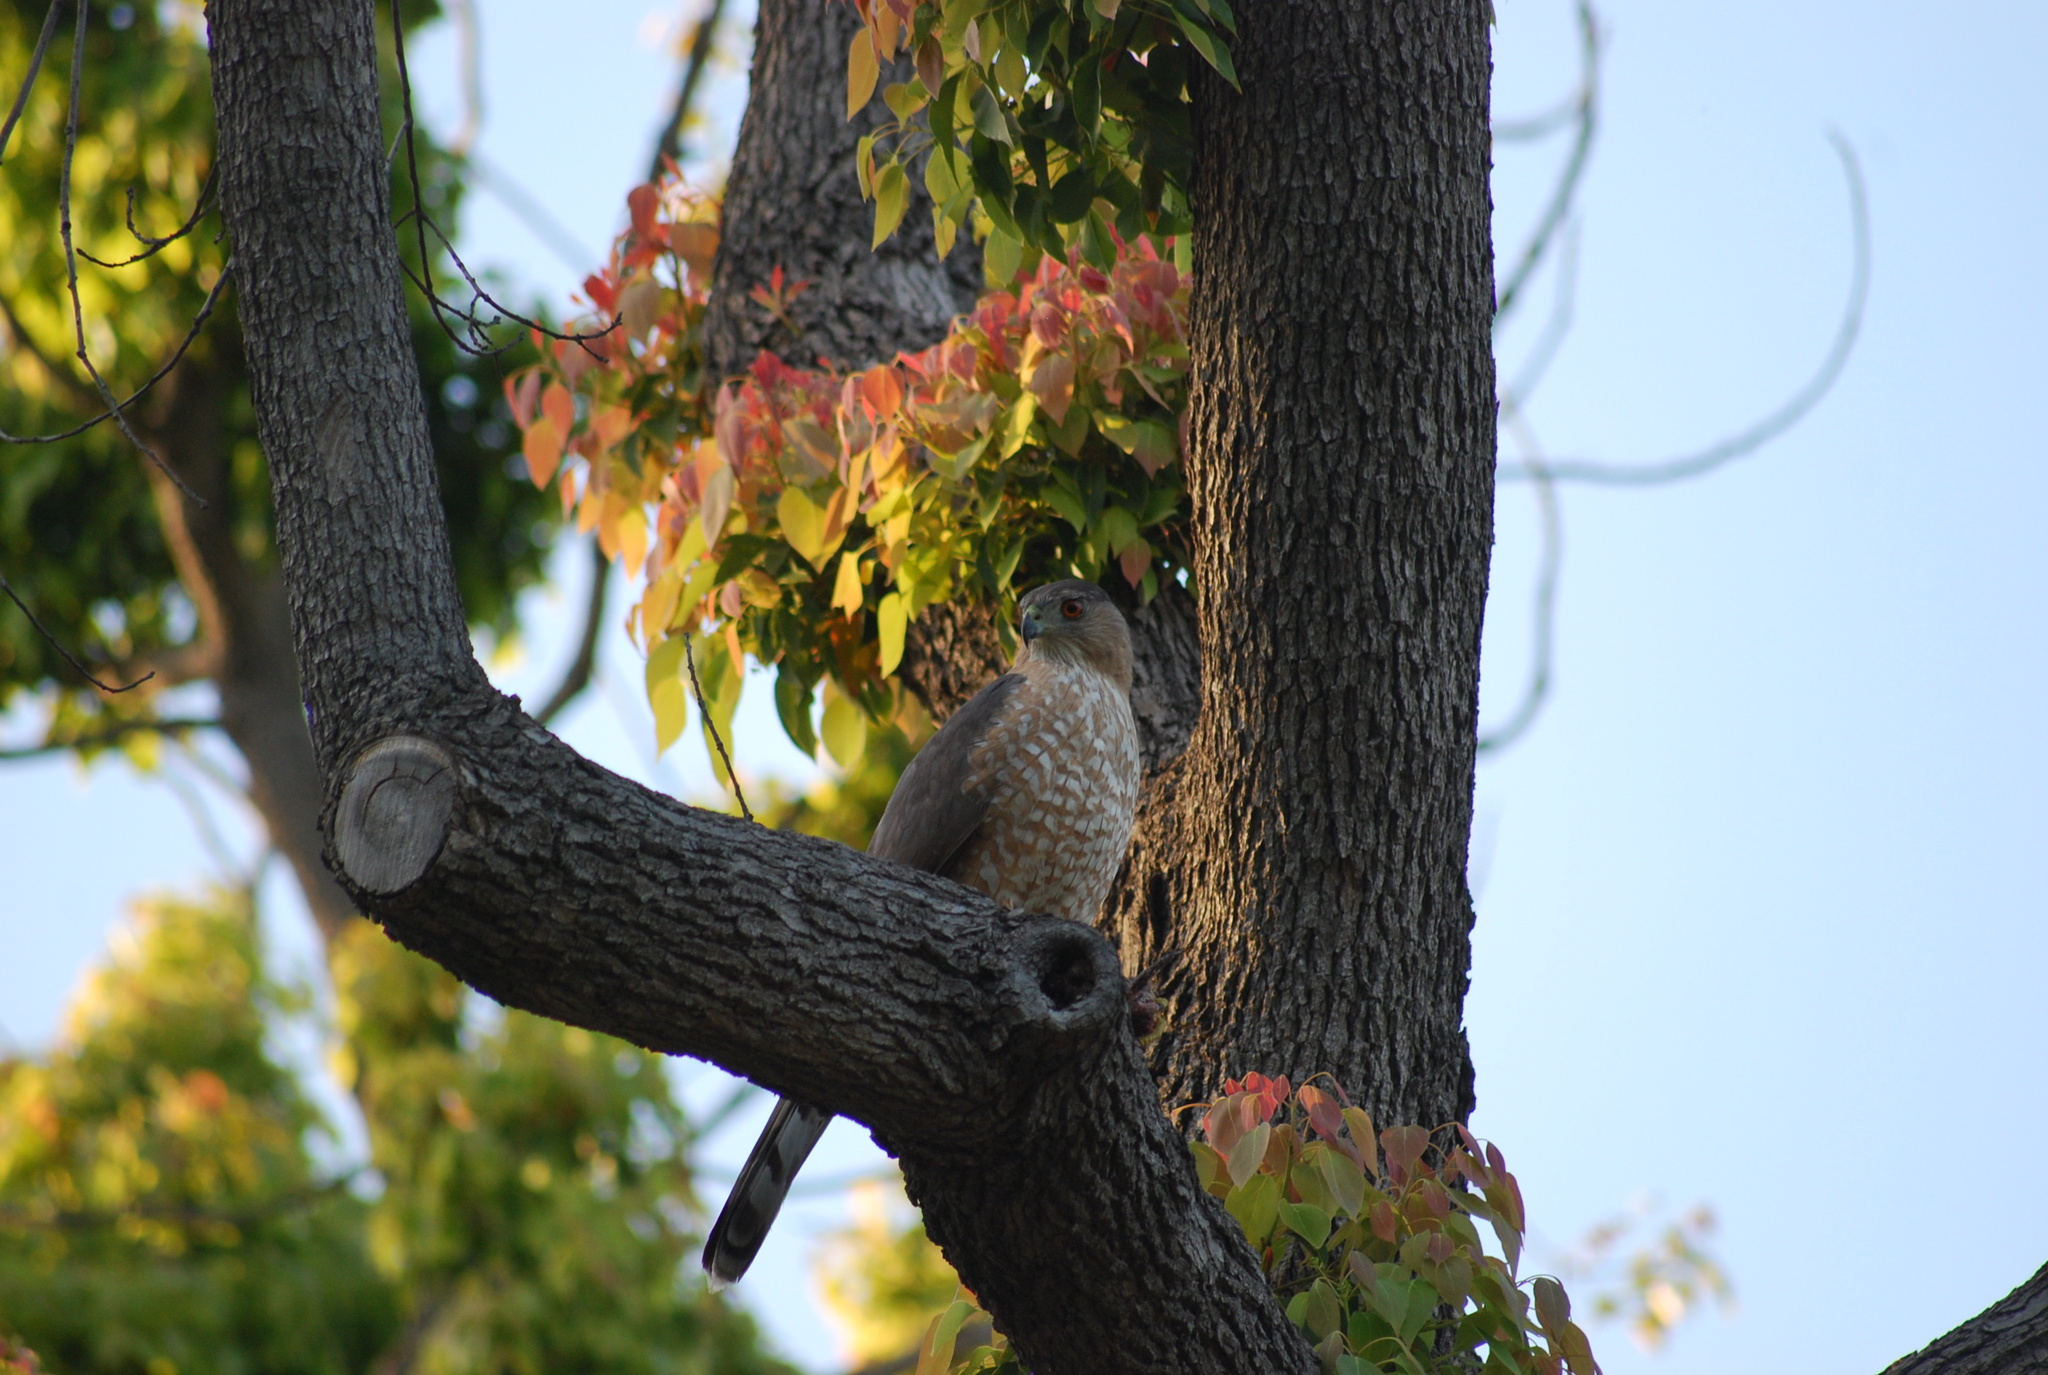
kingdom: Animalia
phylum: Chordata
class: Aves
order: Accipitriformes
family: Accipitridae
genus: Accipiter
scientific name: Accipiter cooperii
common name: Cooper's hawk
